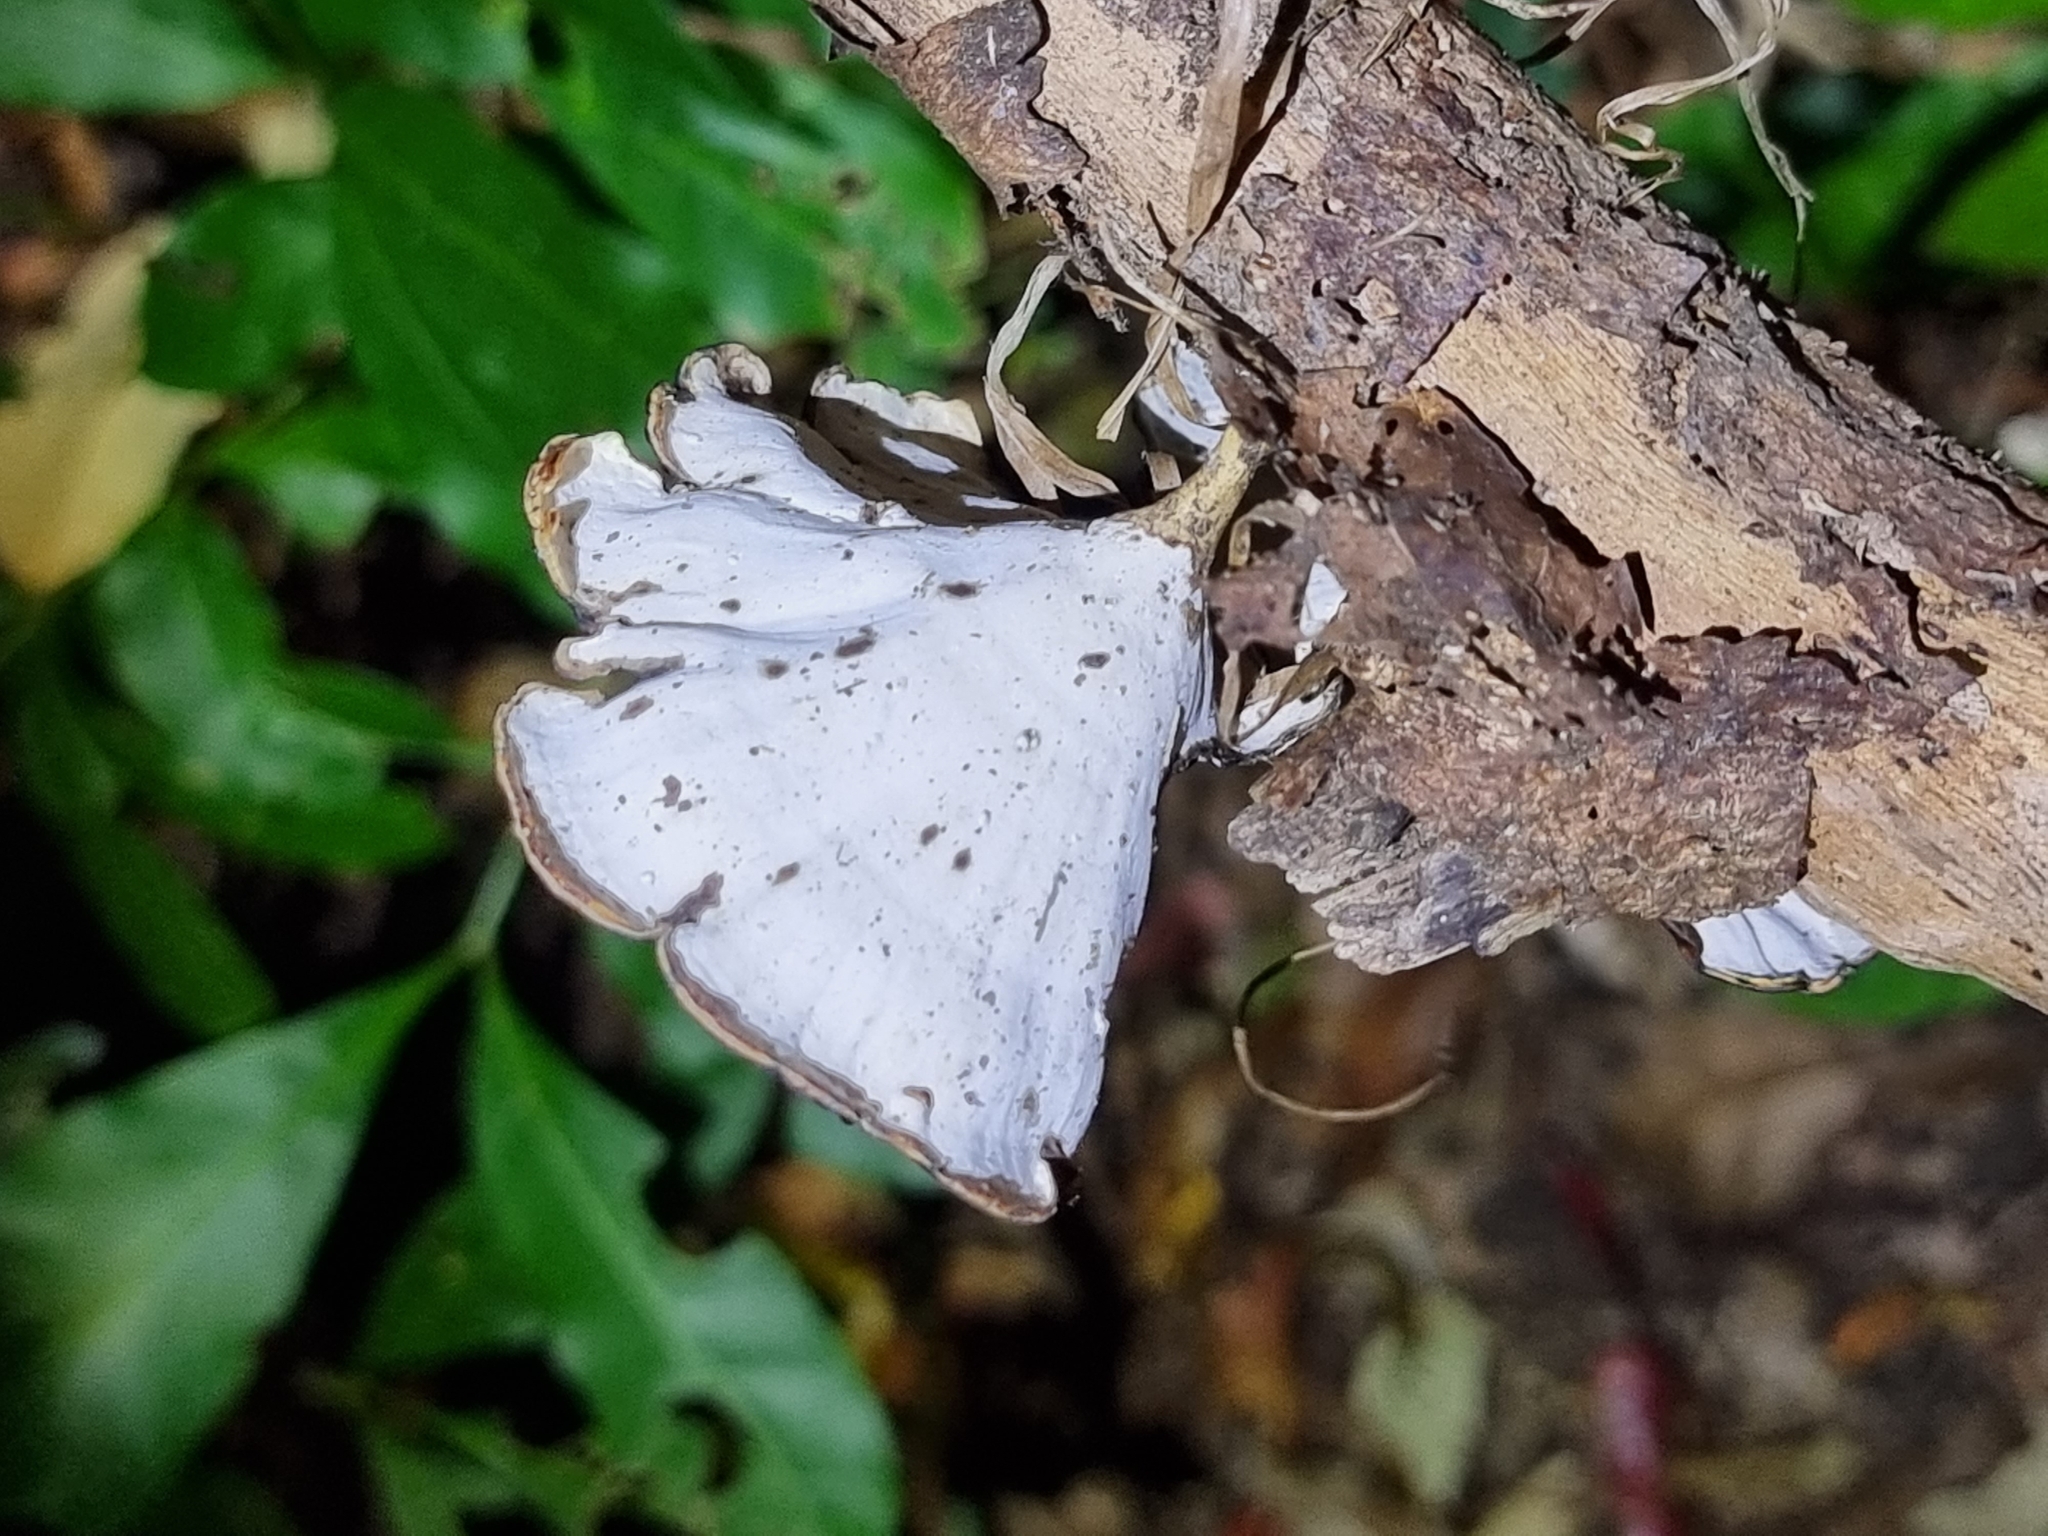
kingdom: Fungi
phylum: Basidiomycota
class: Agaricomycetes
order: Polyporales
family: Polyporaceae
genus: Microporus
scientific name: Microporus xanthopus
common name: Yellow-stemmed micropore
